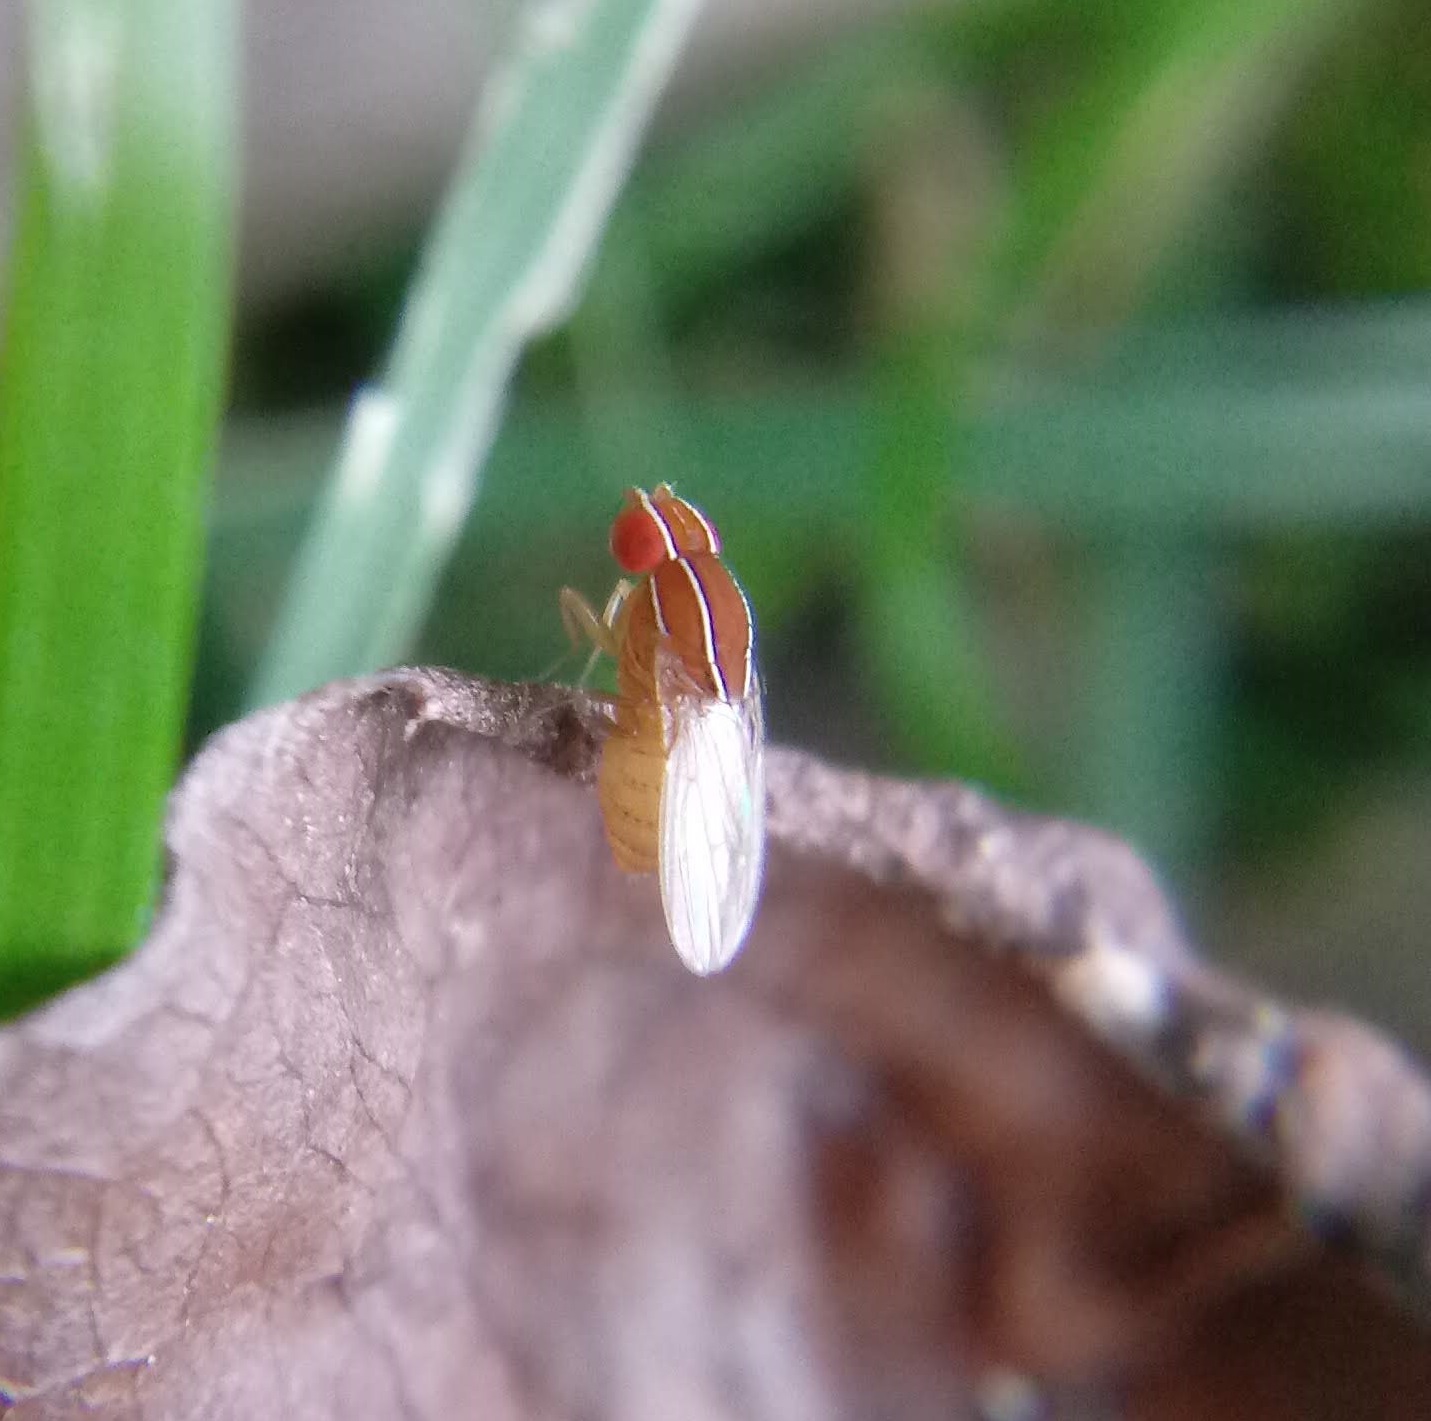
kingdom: Animalia
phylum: Arthropoda
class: Insecta
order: Diptera
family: Drosophilidae
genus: Zaprionus
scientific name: Zaprionus indianus
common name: African fig fly
